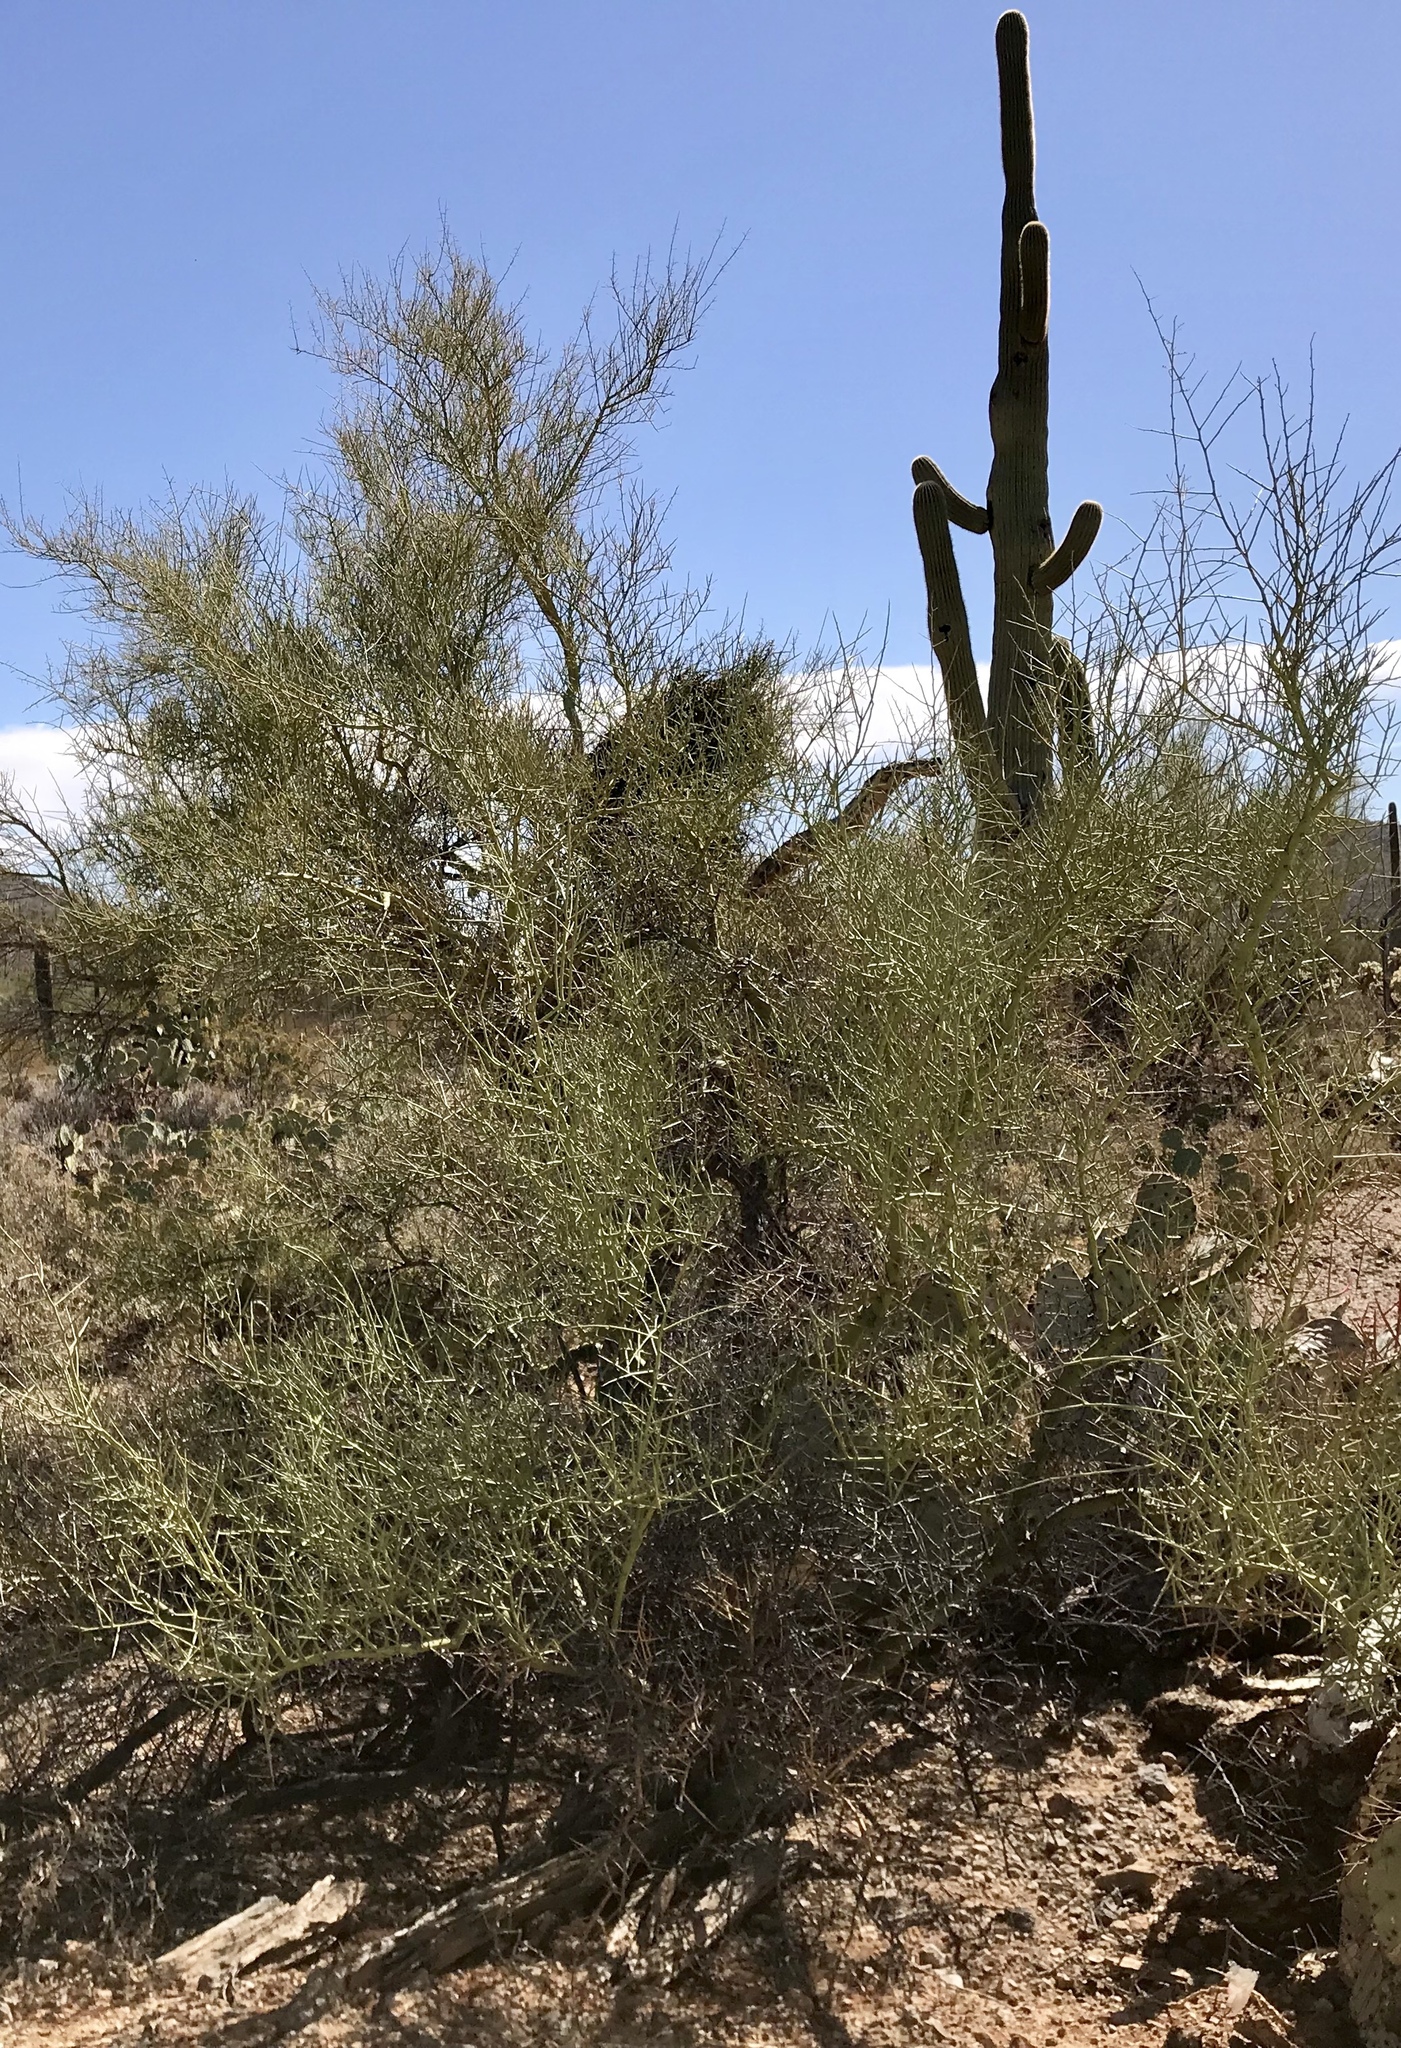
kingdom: Plantae
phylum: Tracheophyta
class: Magnoliopsida
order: Fabales
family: Fabaceae
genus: Parkinsonia
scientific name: Parkinsonia microphylla
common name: Yellow paloverde
